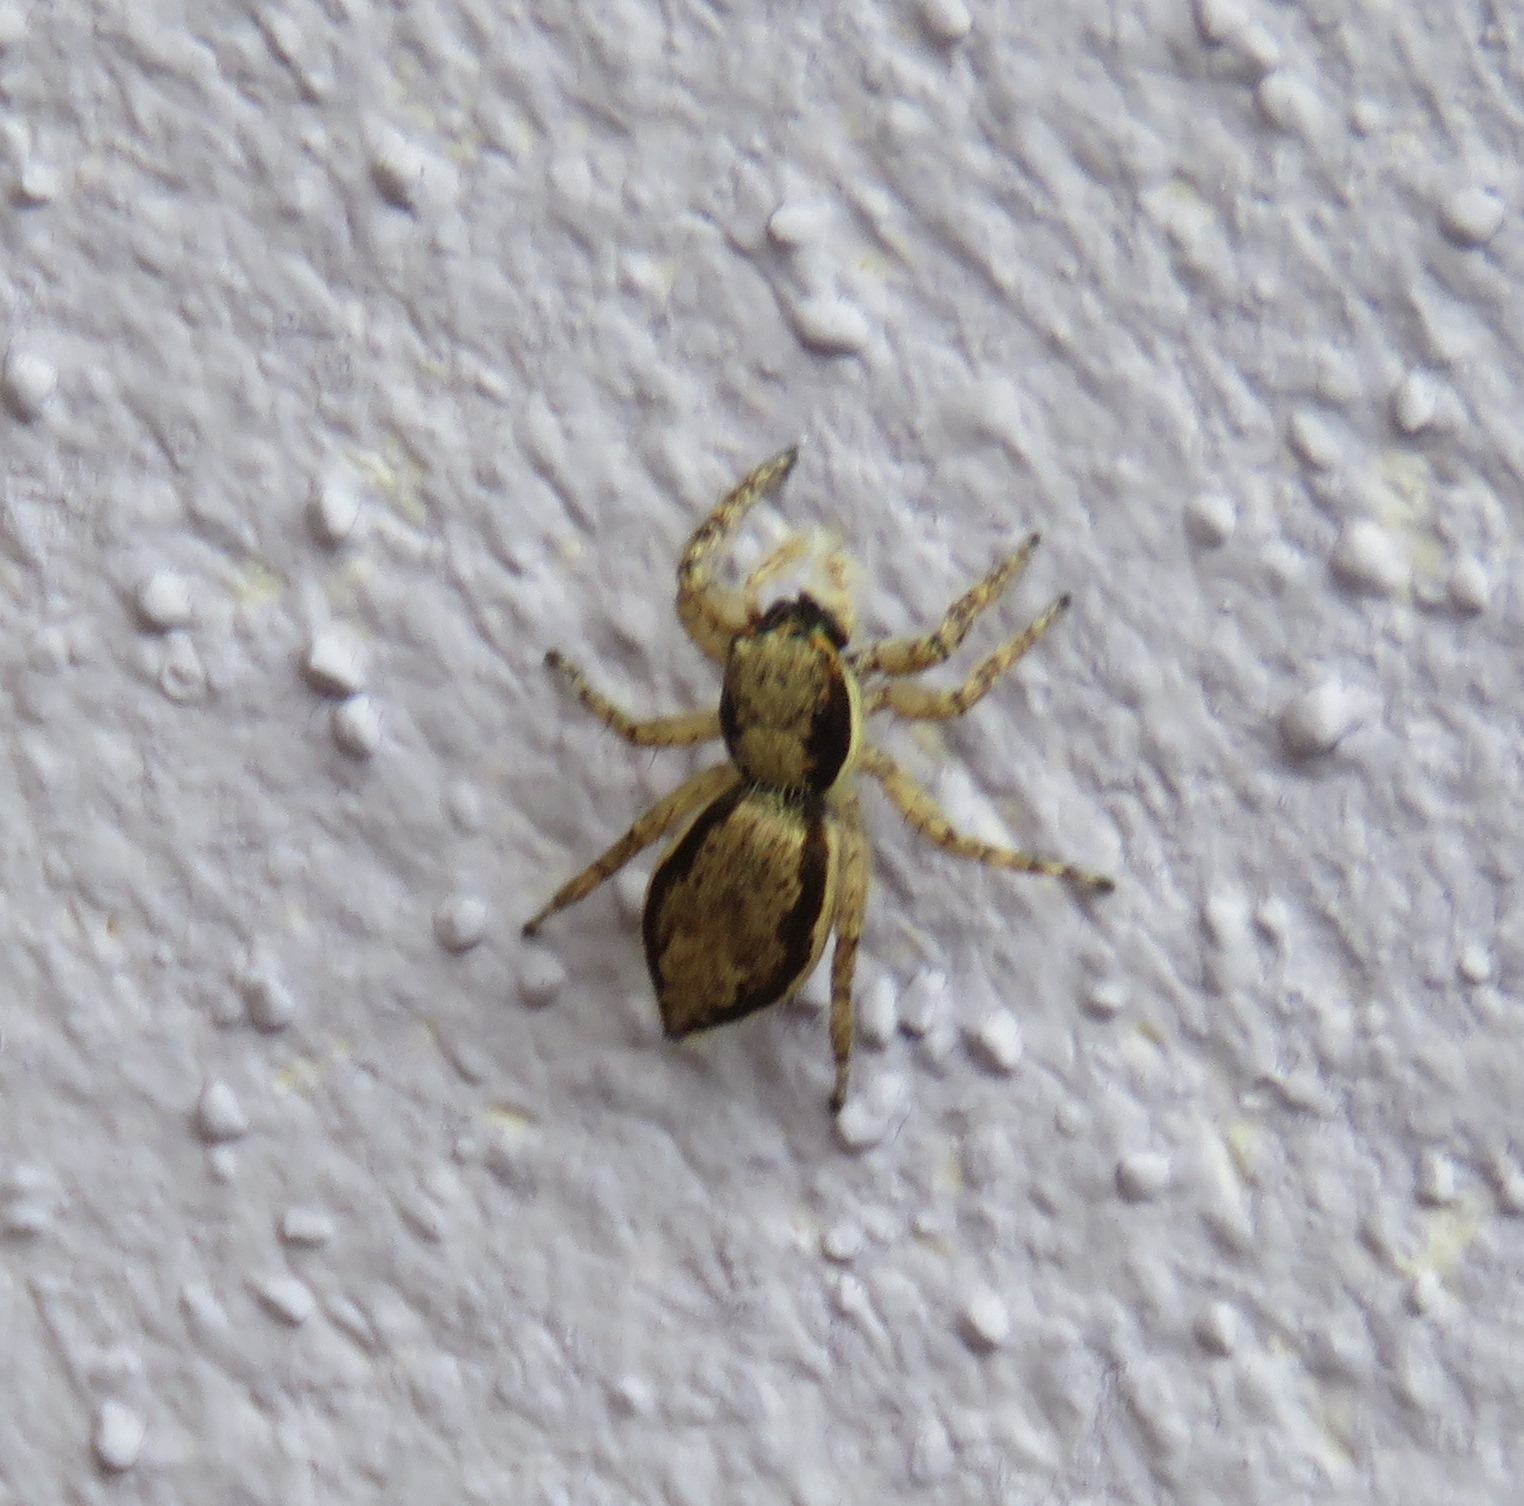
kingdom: Animalia
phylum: Arthropoda
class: Arachnida
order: Araneae
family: Salticidae
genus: Menemerus
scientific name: Menemerus bivittatus
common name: Gray wall jumper
